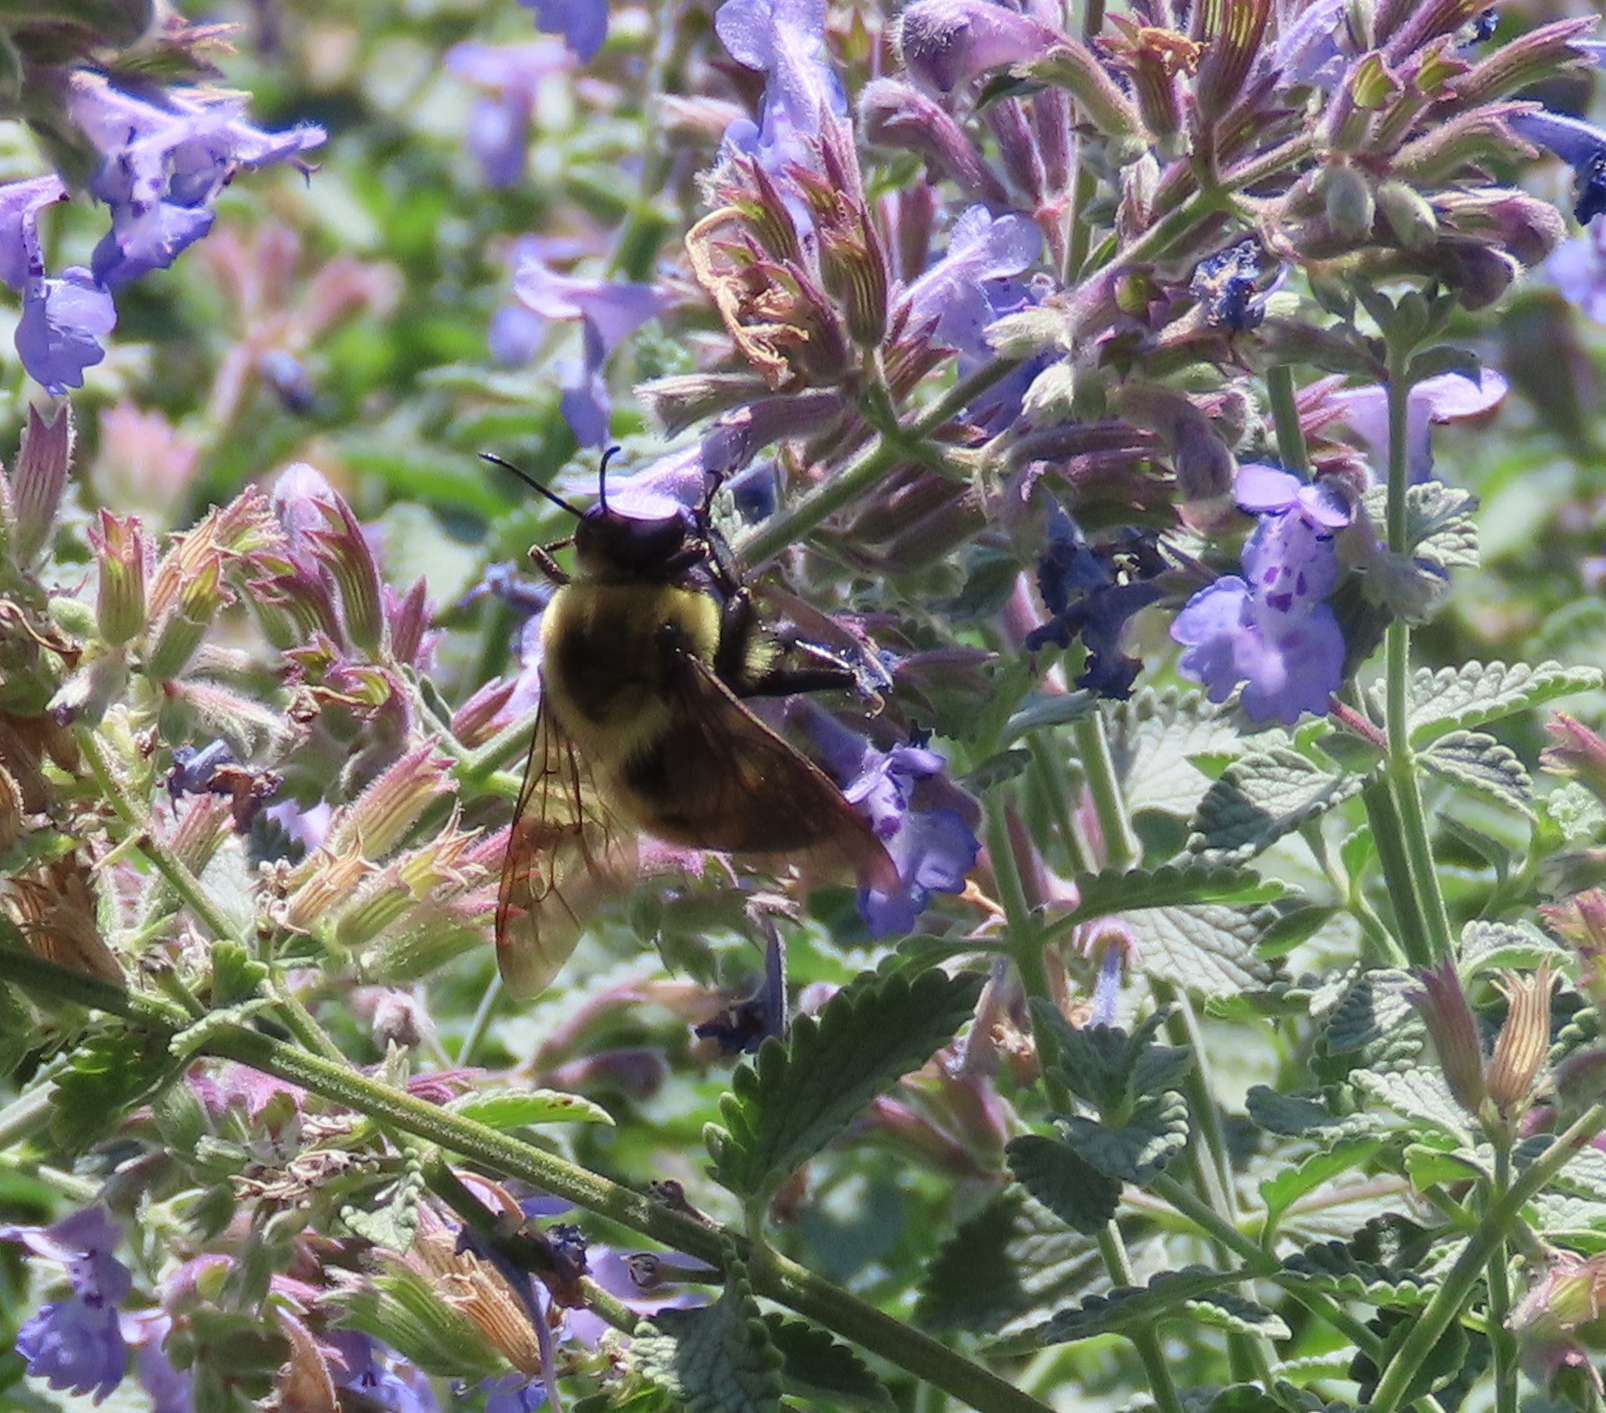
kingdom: Animalia
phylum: Arthropoda
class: Insecta
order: Hymenoptera
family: Apidae
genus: Bombus
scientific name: Bombus griseocollis
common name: Brown-belted bumble bee
